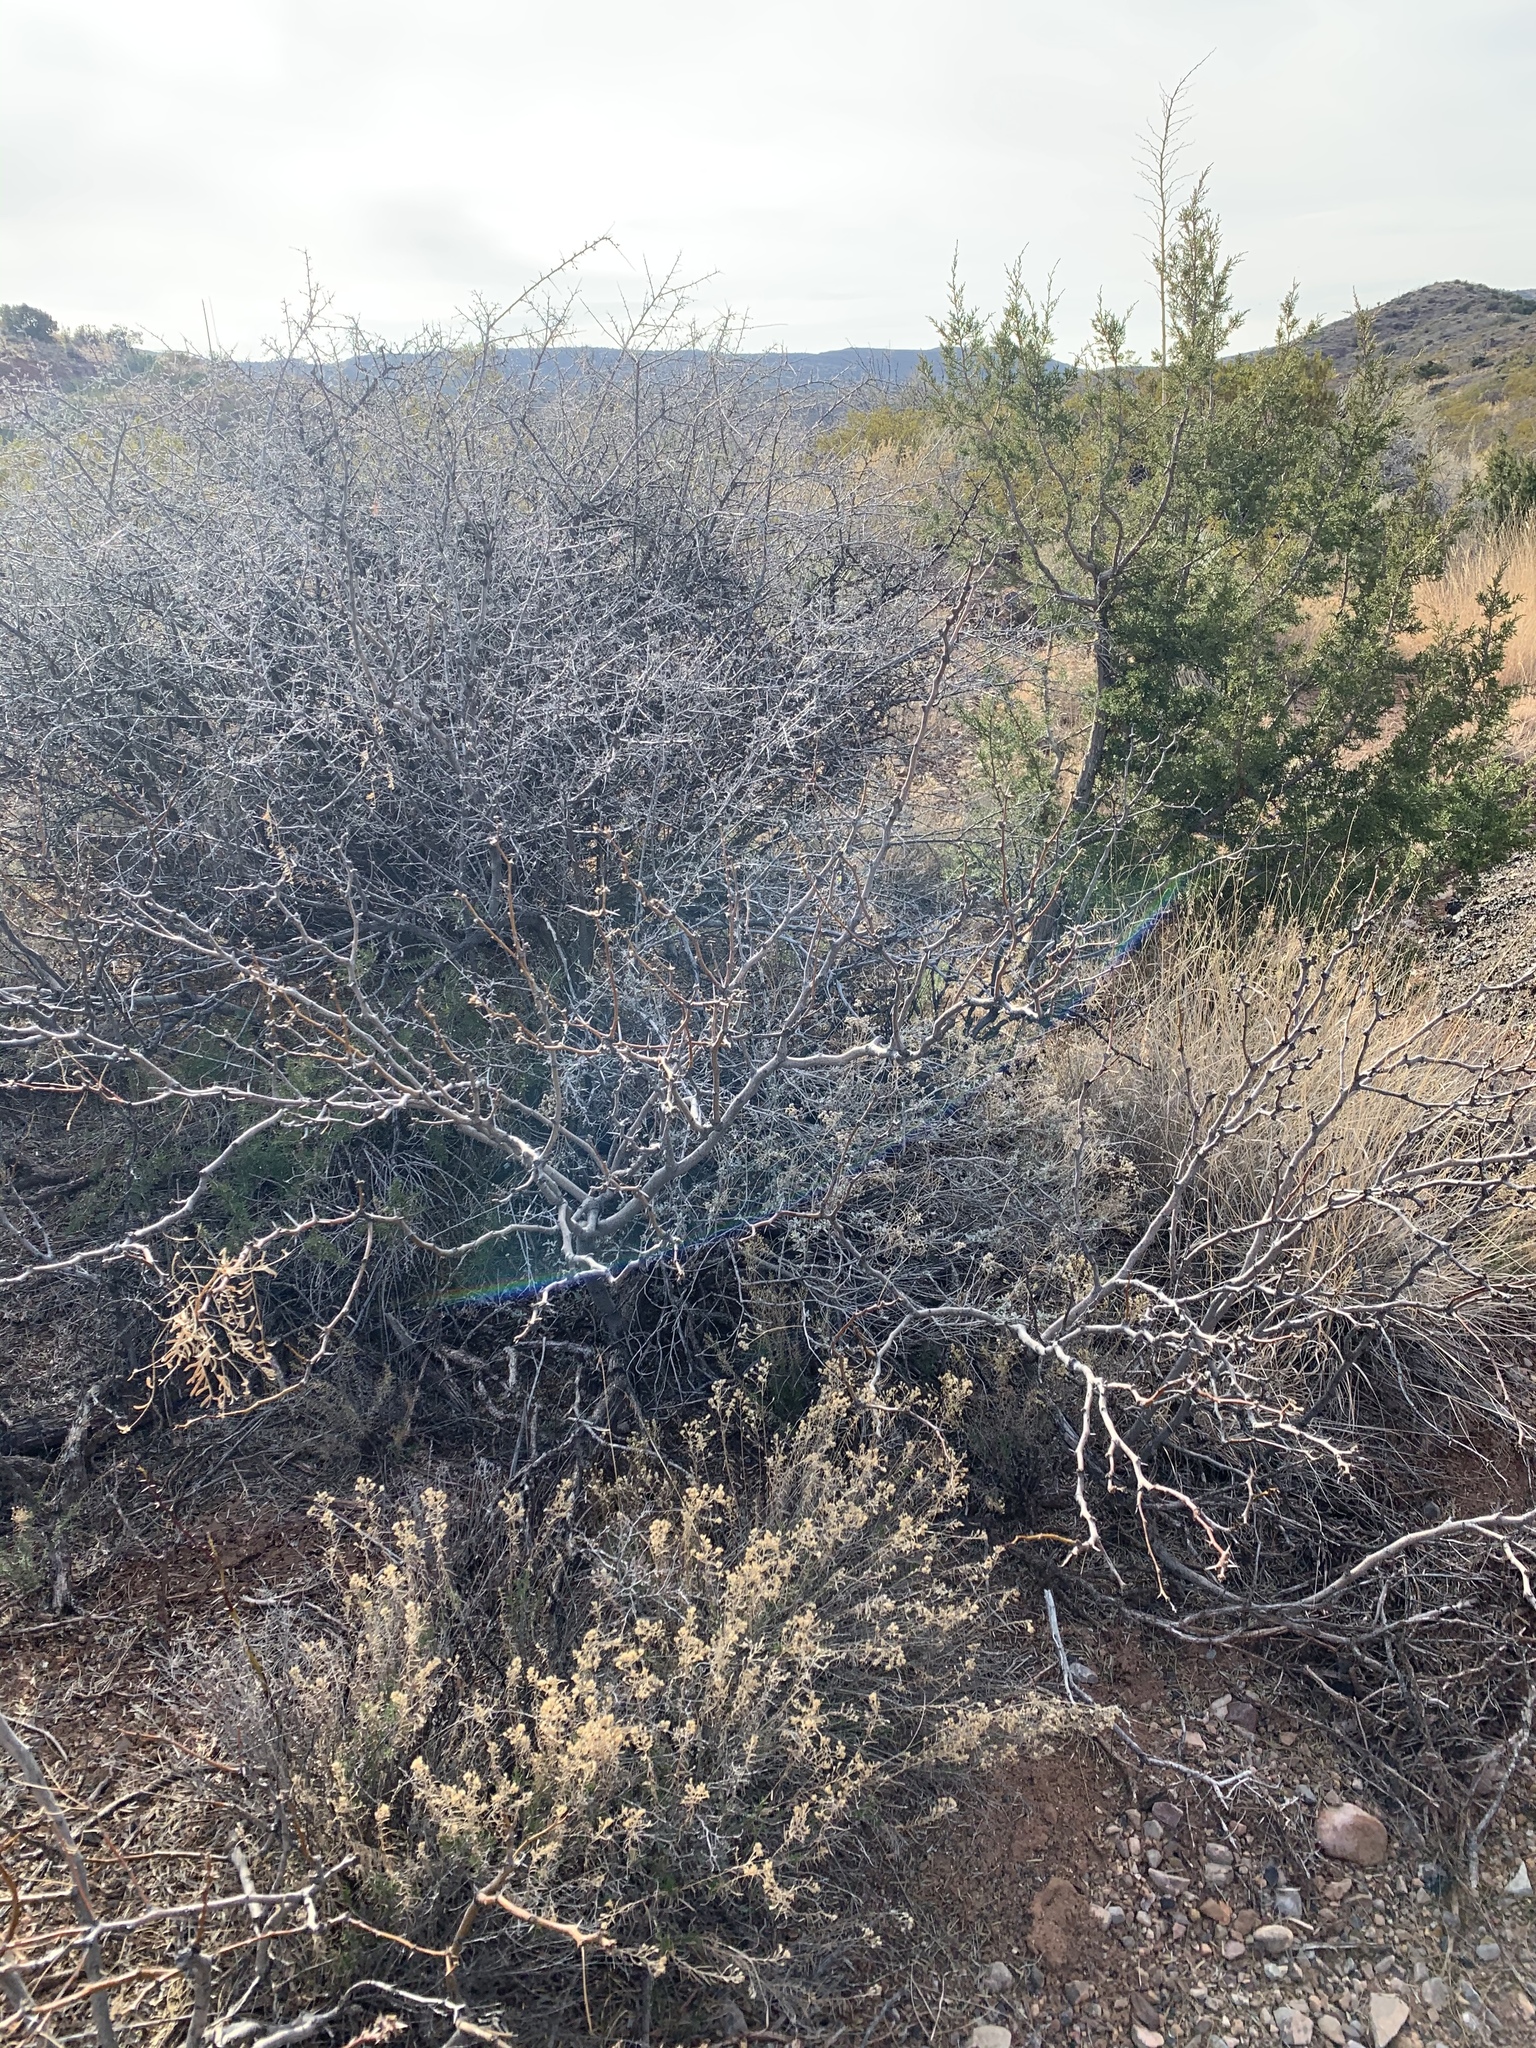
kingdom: Plantae
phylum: Tracheophyta
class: Magnoliopsida
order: Asterales
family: Asteraceae
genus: Flourensia
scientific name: Flourensia cernua
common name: Varnishbush
